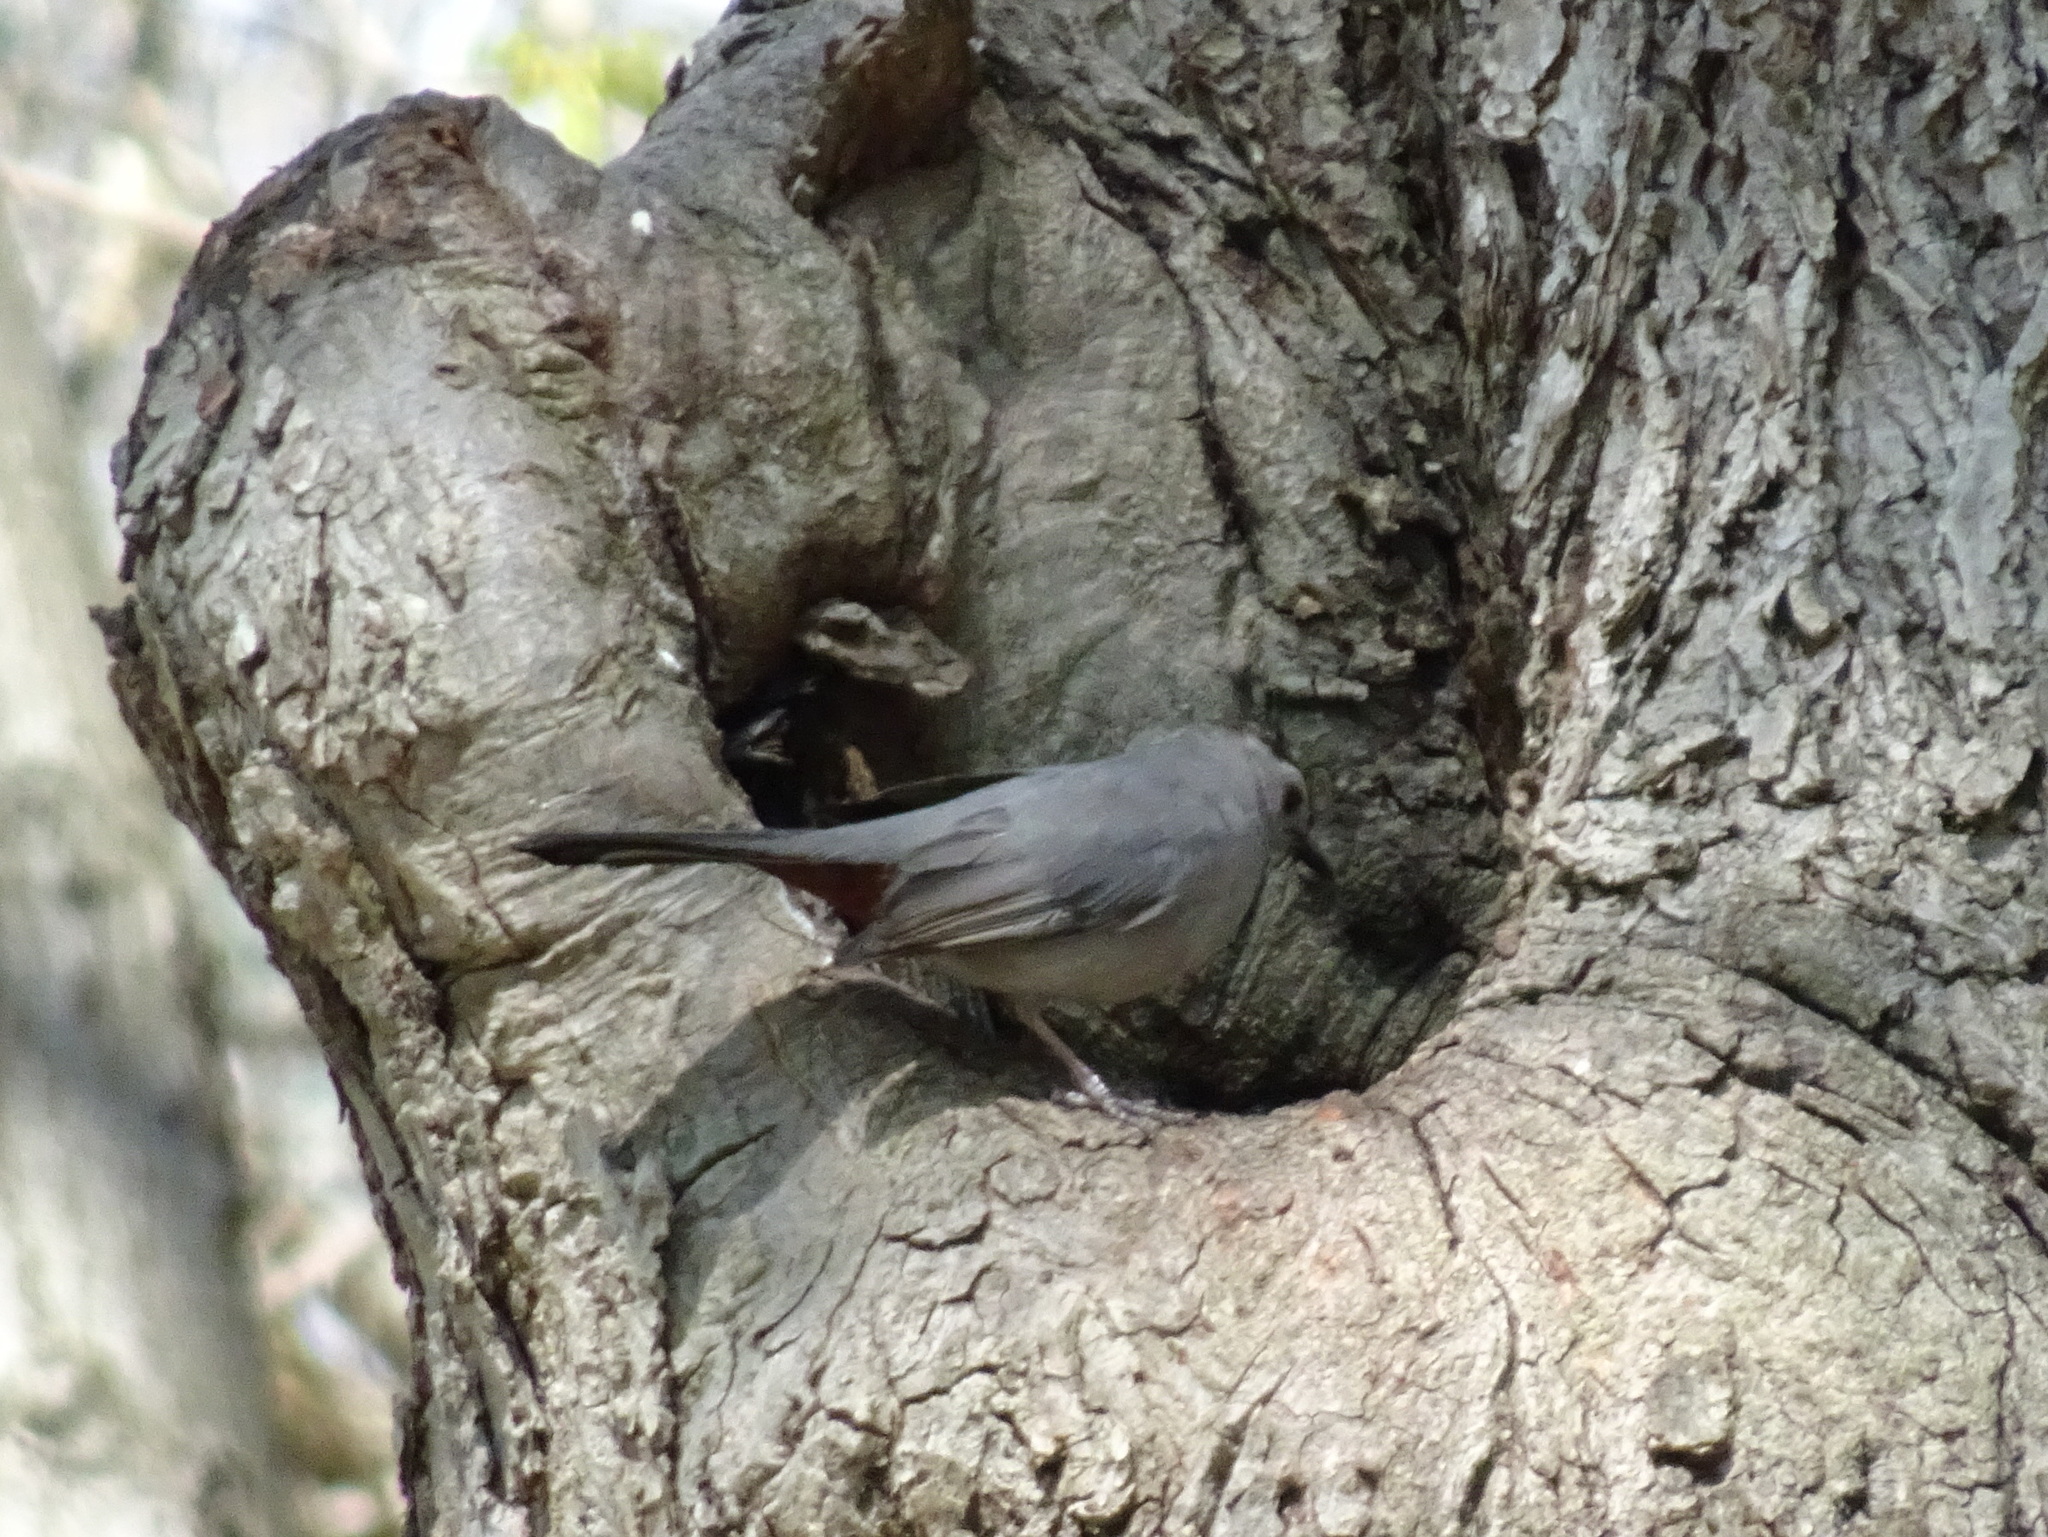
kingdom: Animalia
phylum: Chordata
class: Aves
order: Passeriformes
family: Mimidae
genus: Dumetella
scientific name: Dumetella carolinensis
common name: Gray catbird
